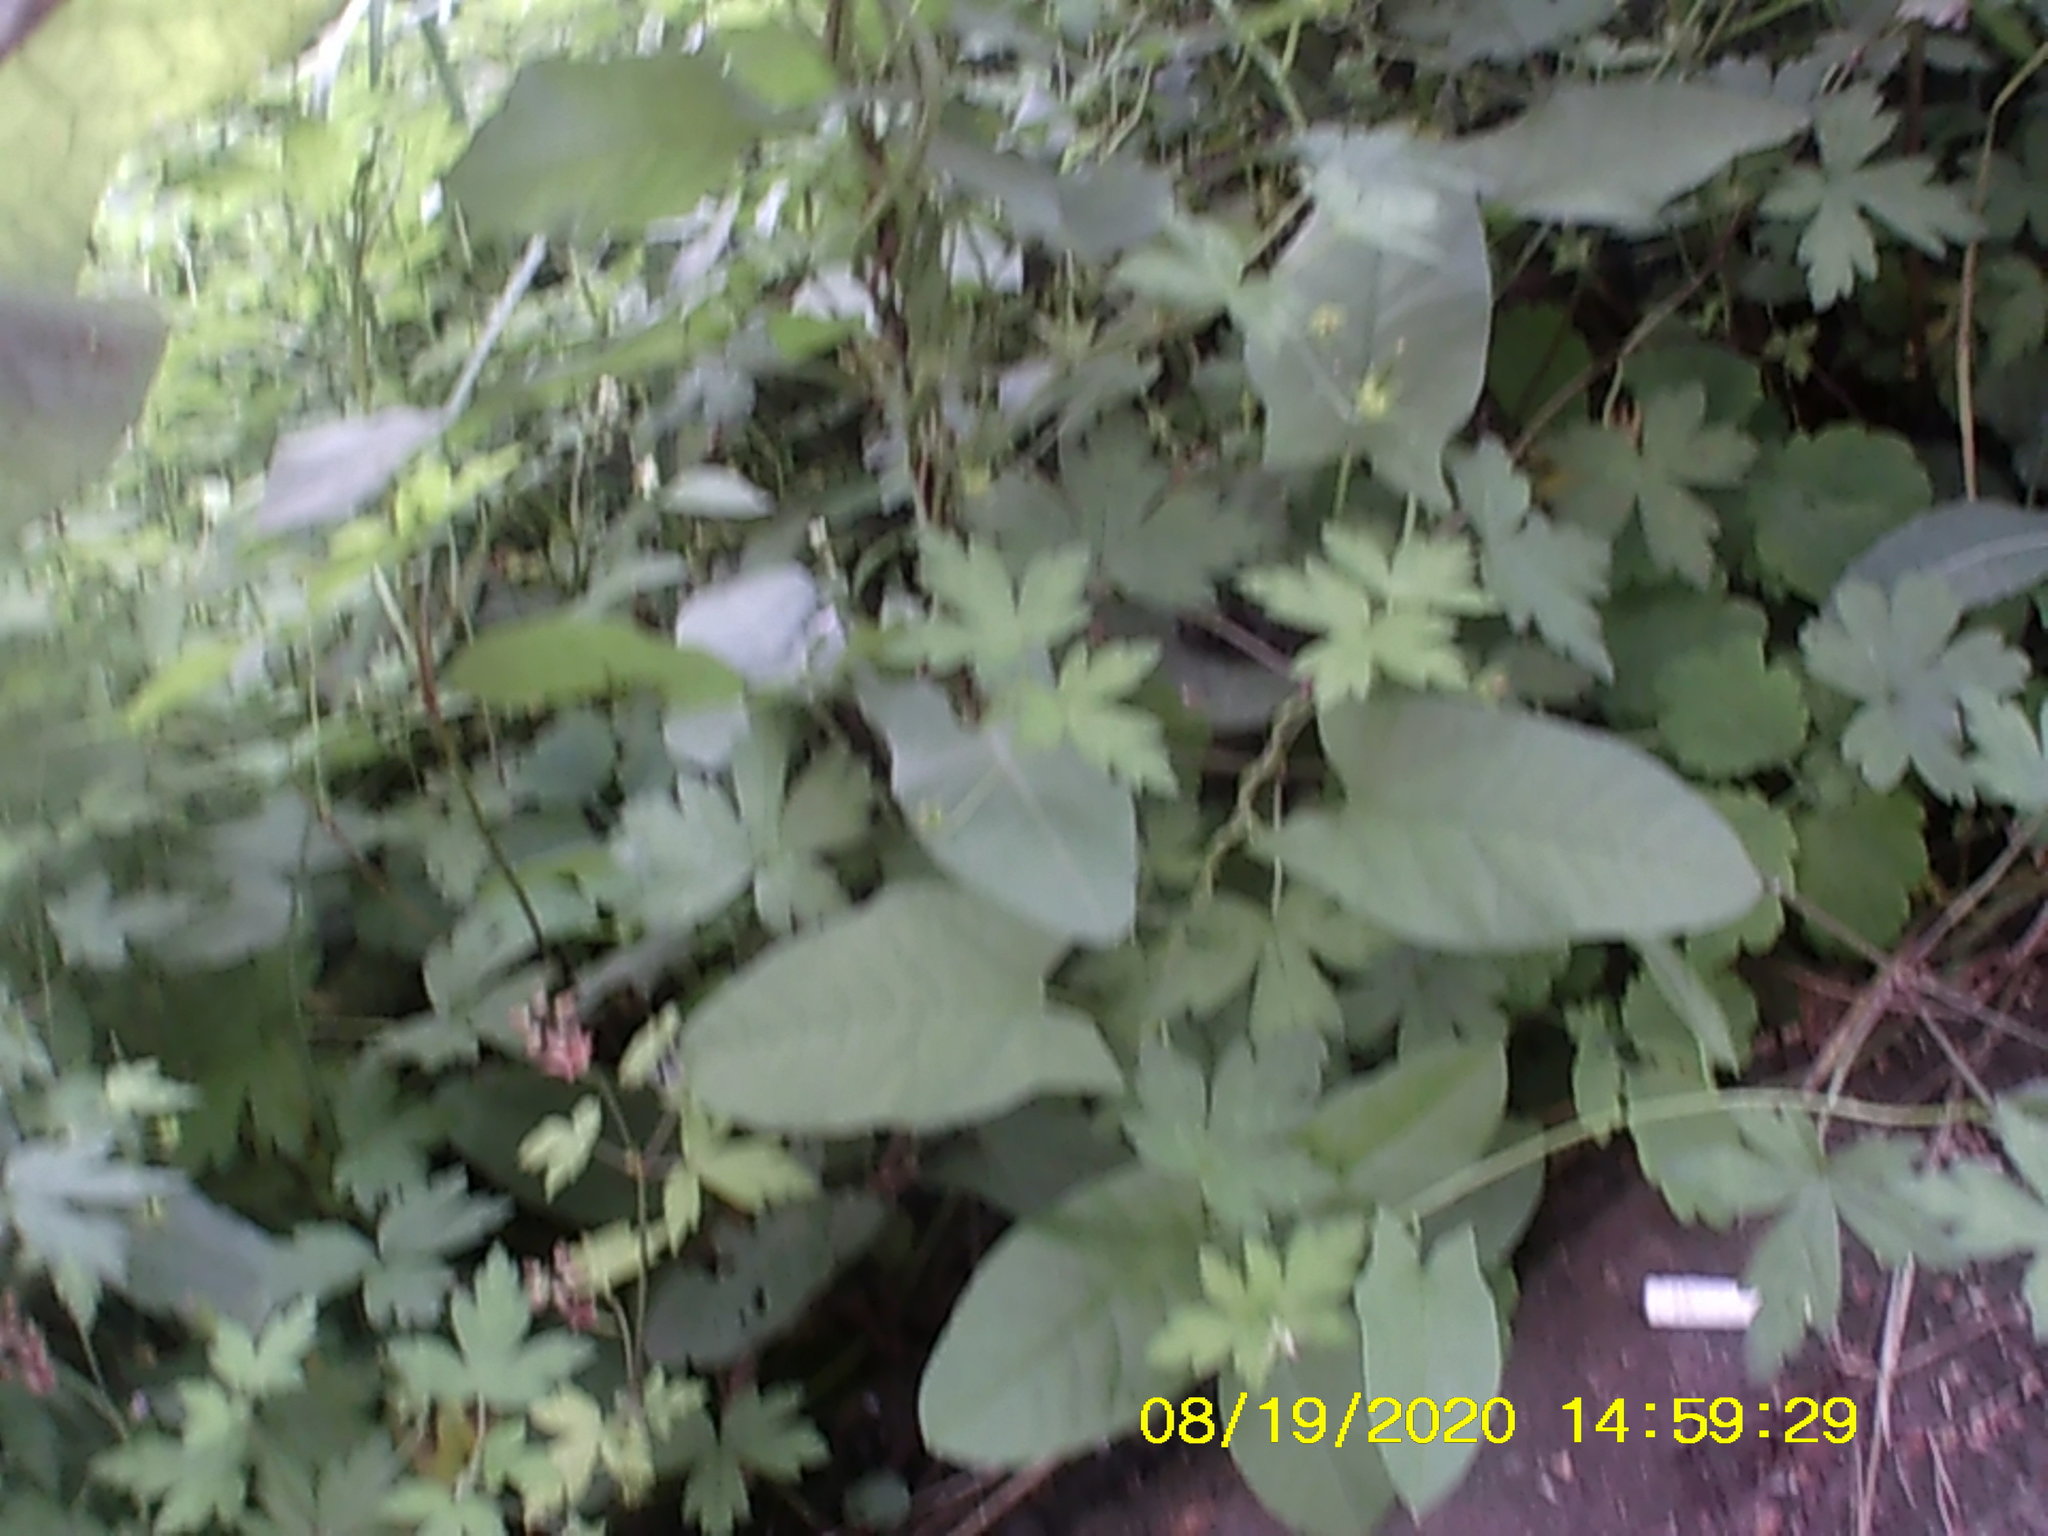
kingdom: Plantae
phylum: Tracheophyta
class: Magnoliopsida
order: Solanales
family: Convolvulaceae
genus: Calystegia
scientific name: Calystegia
